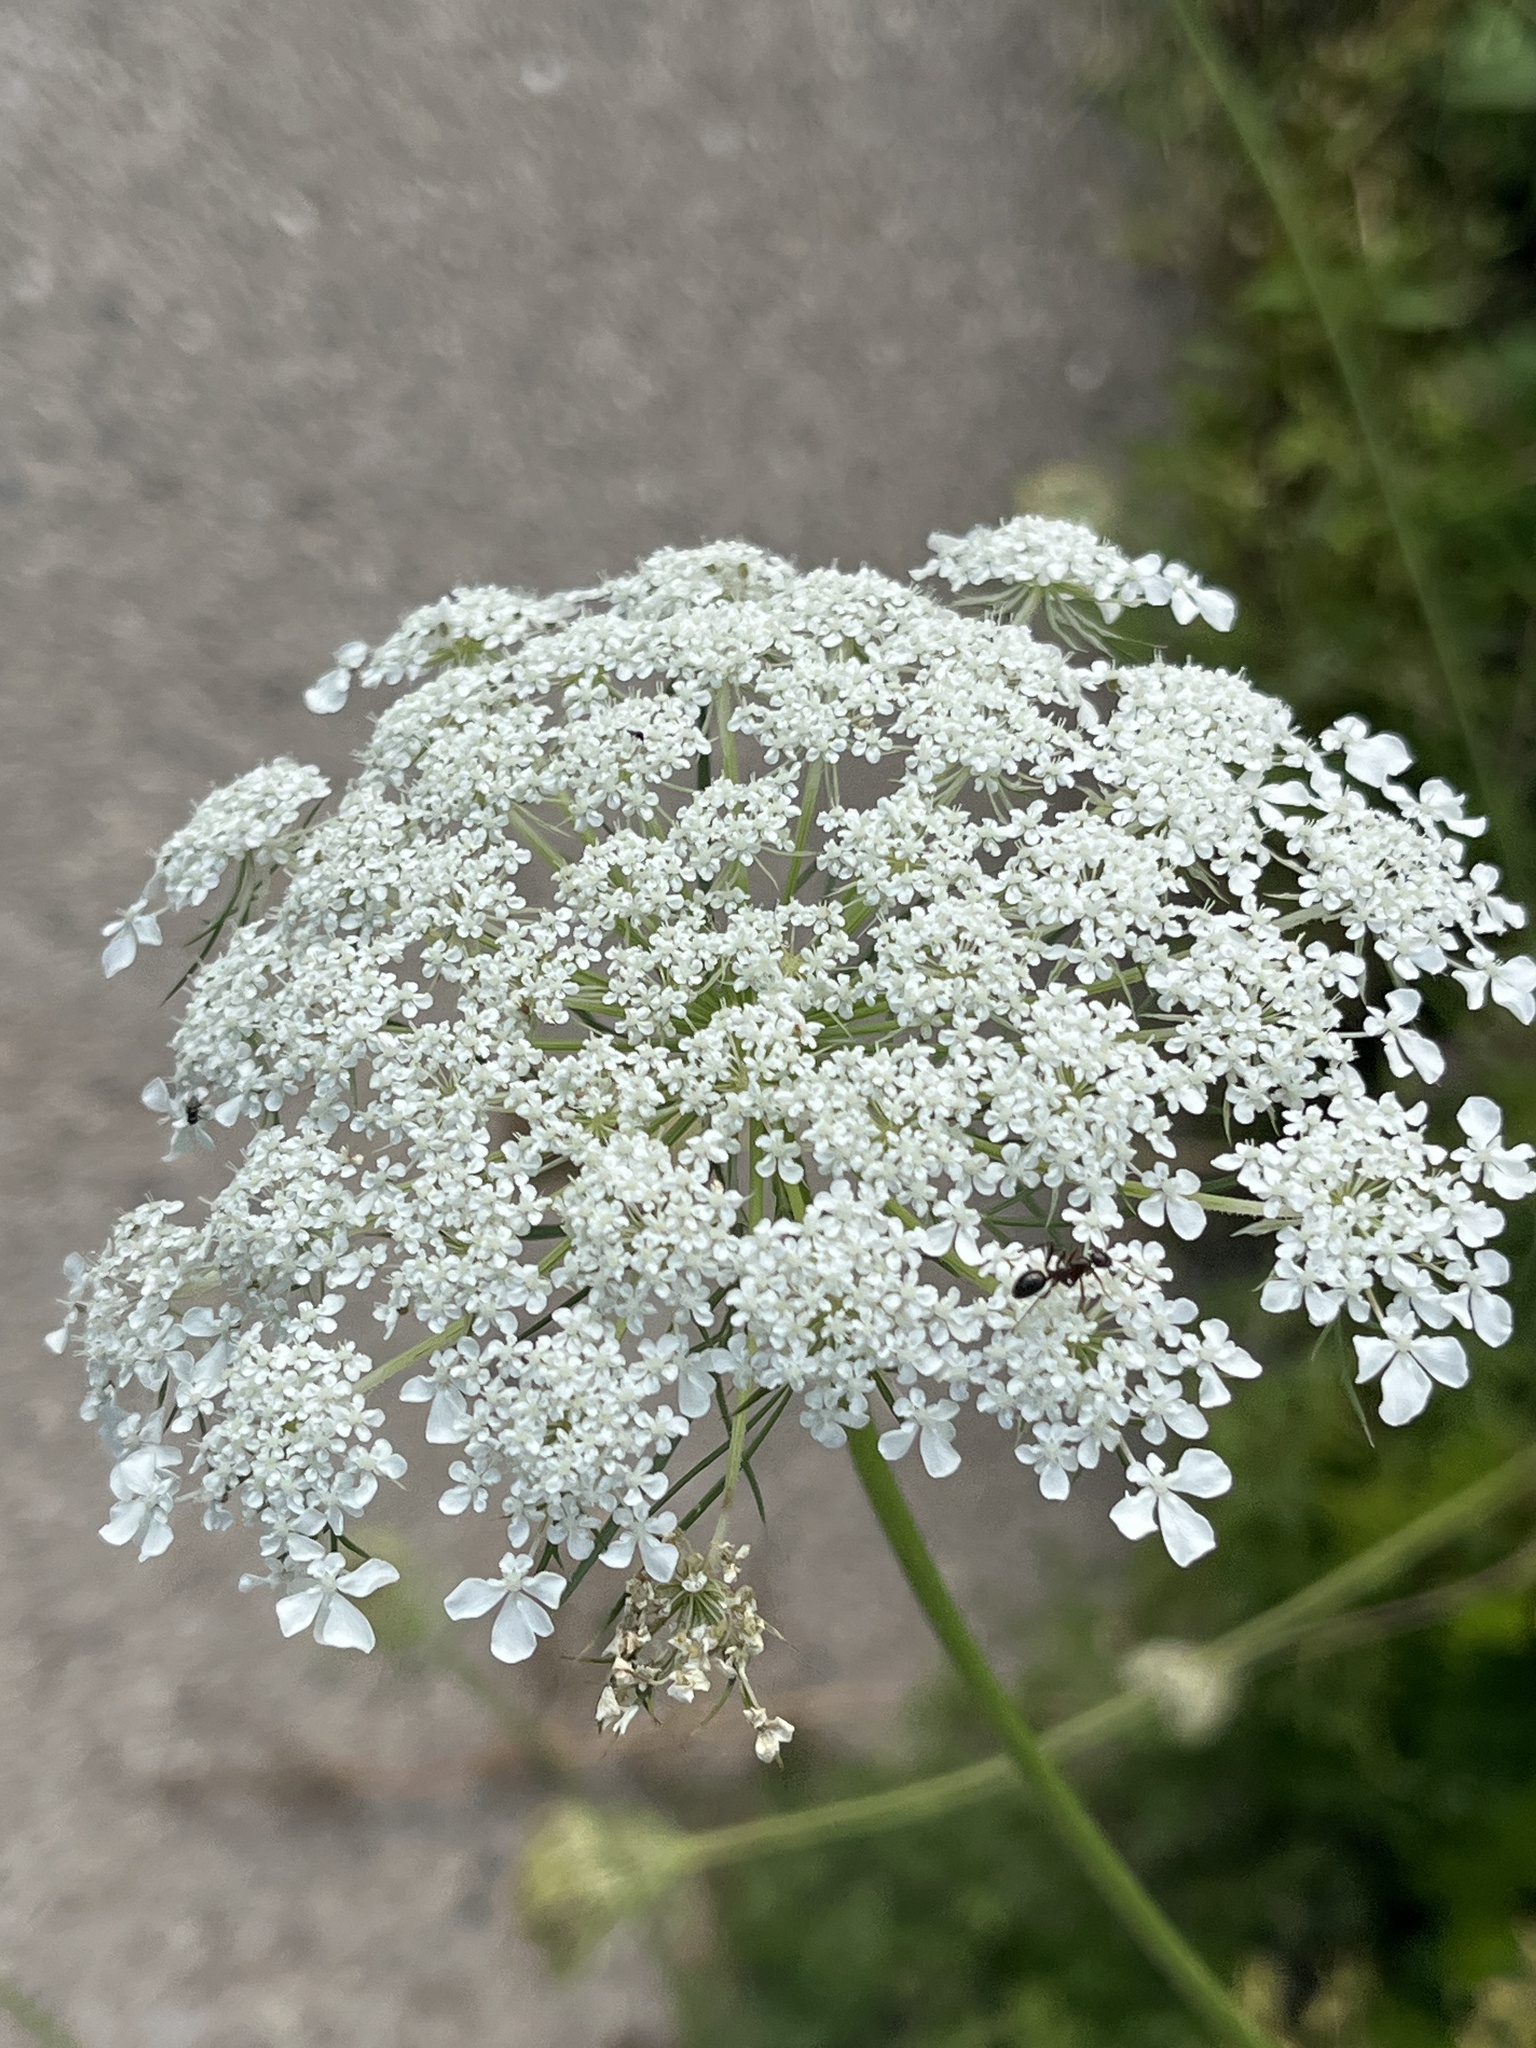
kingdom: Plantae
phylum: Tracheophyta
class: Magnoliopsida
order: Apiales
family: Apiaceae
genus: Daucus
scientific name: Daucus carota
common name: Wild carrot
